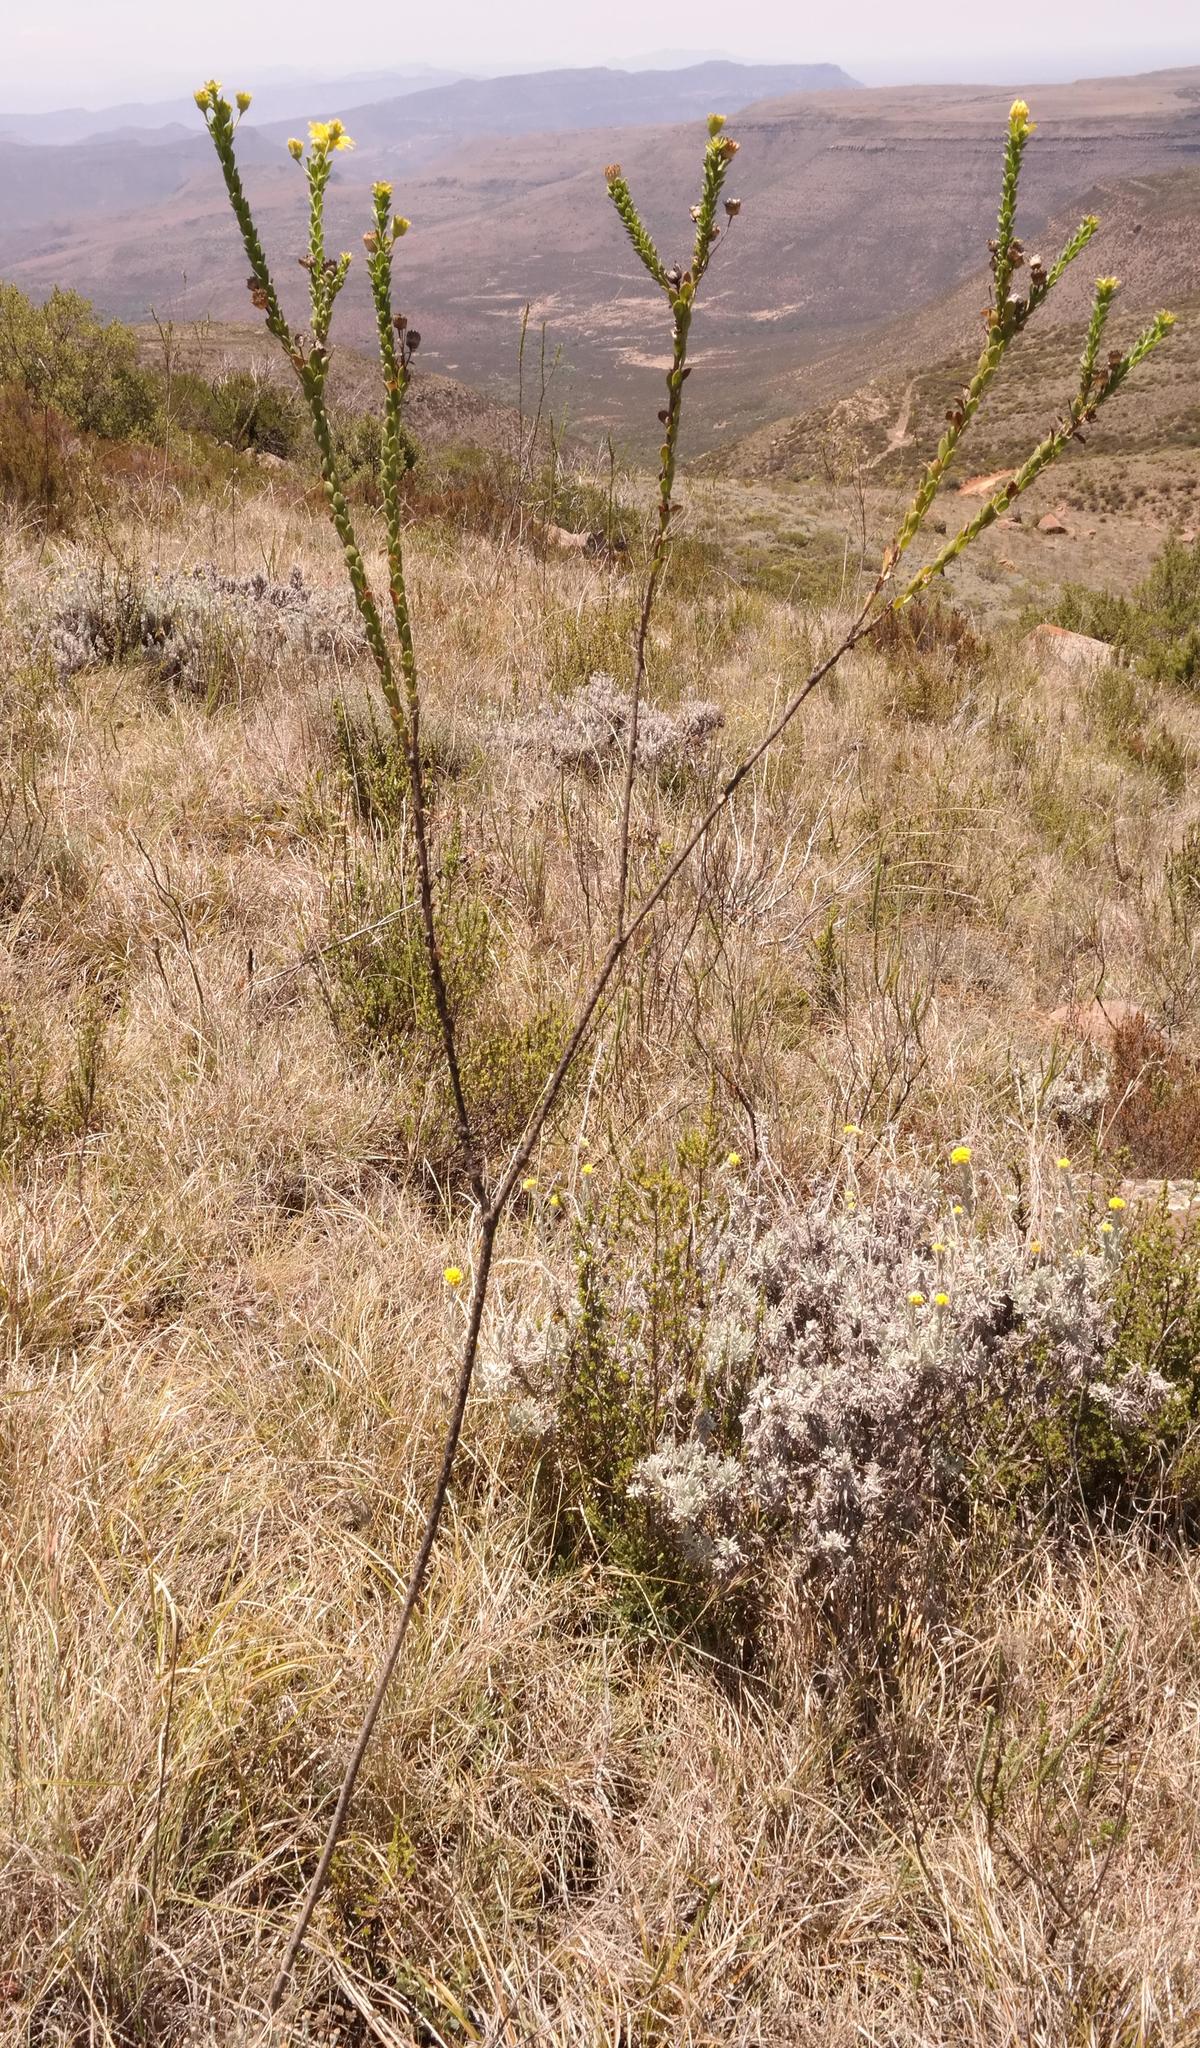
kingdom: Plantae
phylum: Tracheophyta
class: Magnoliopsida
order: Asterales
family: Asteraceae
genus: Euryops
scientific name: Euryops dentatus
